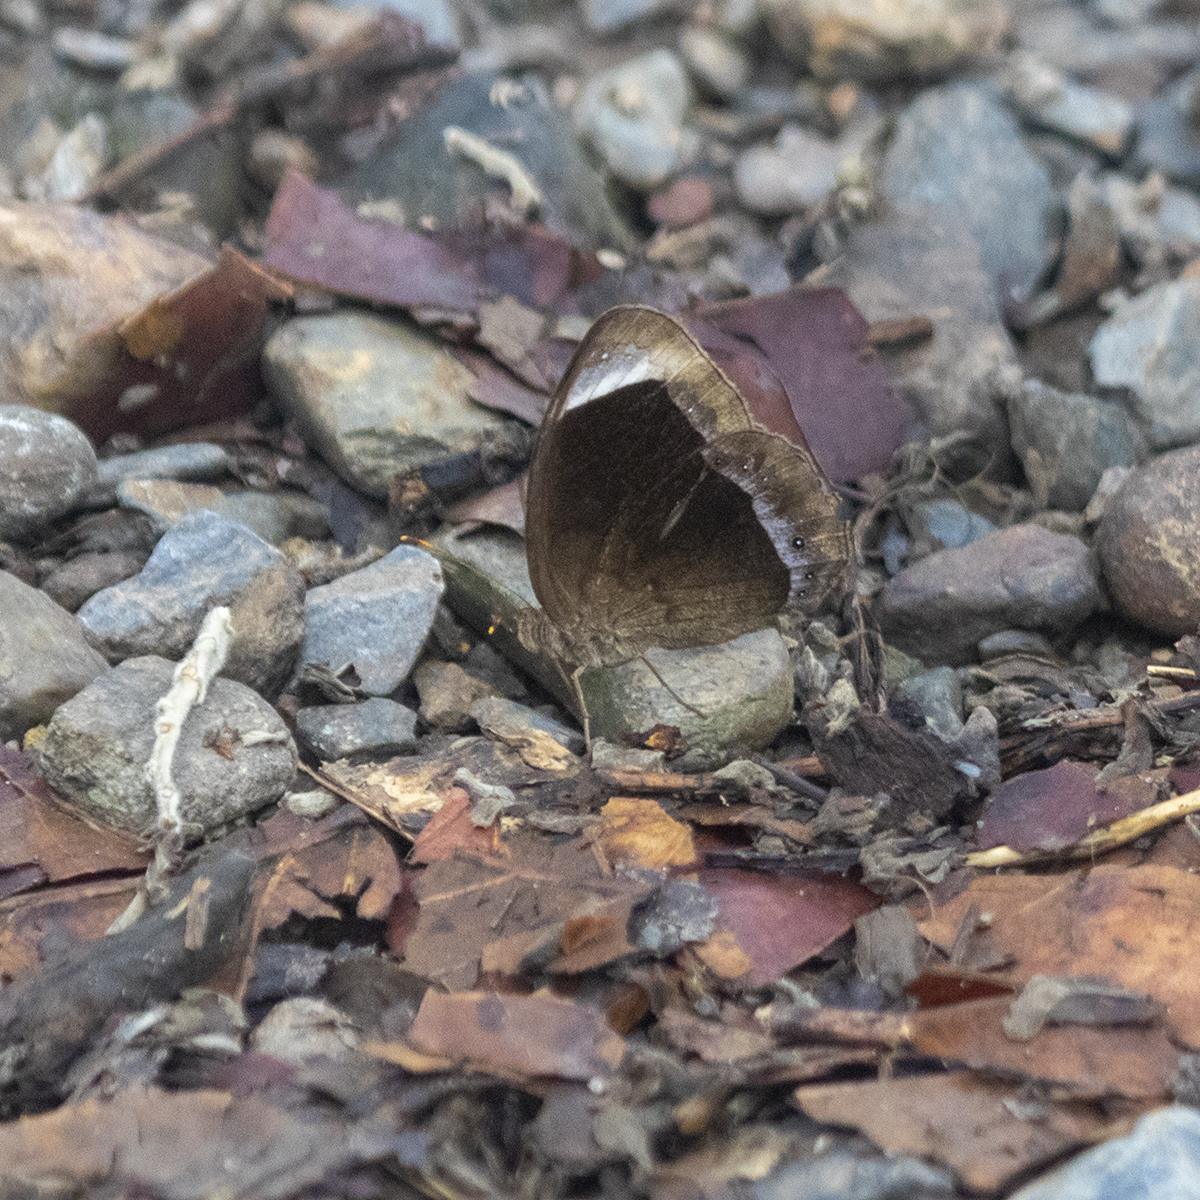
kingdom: Animalia
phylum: Arthropoda
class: Insecta
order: Lepidoptera
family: Nymphalidae
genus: Mycalesis
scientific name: Mycalesis anaxias
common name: White-bar bushbrown
